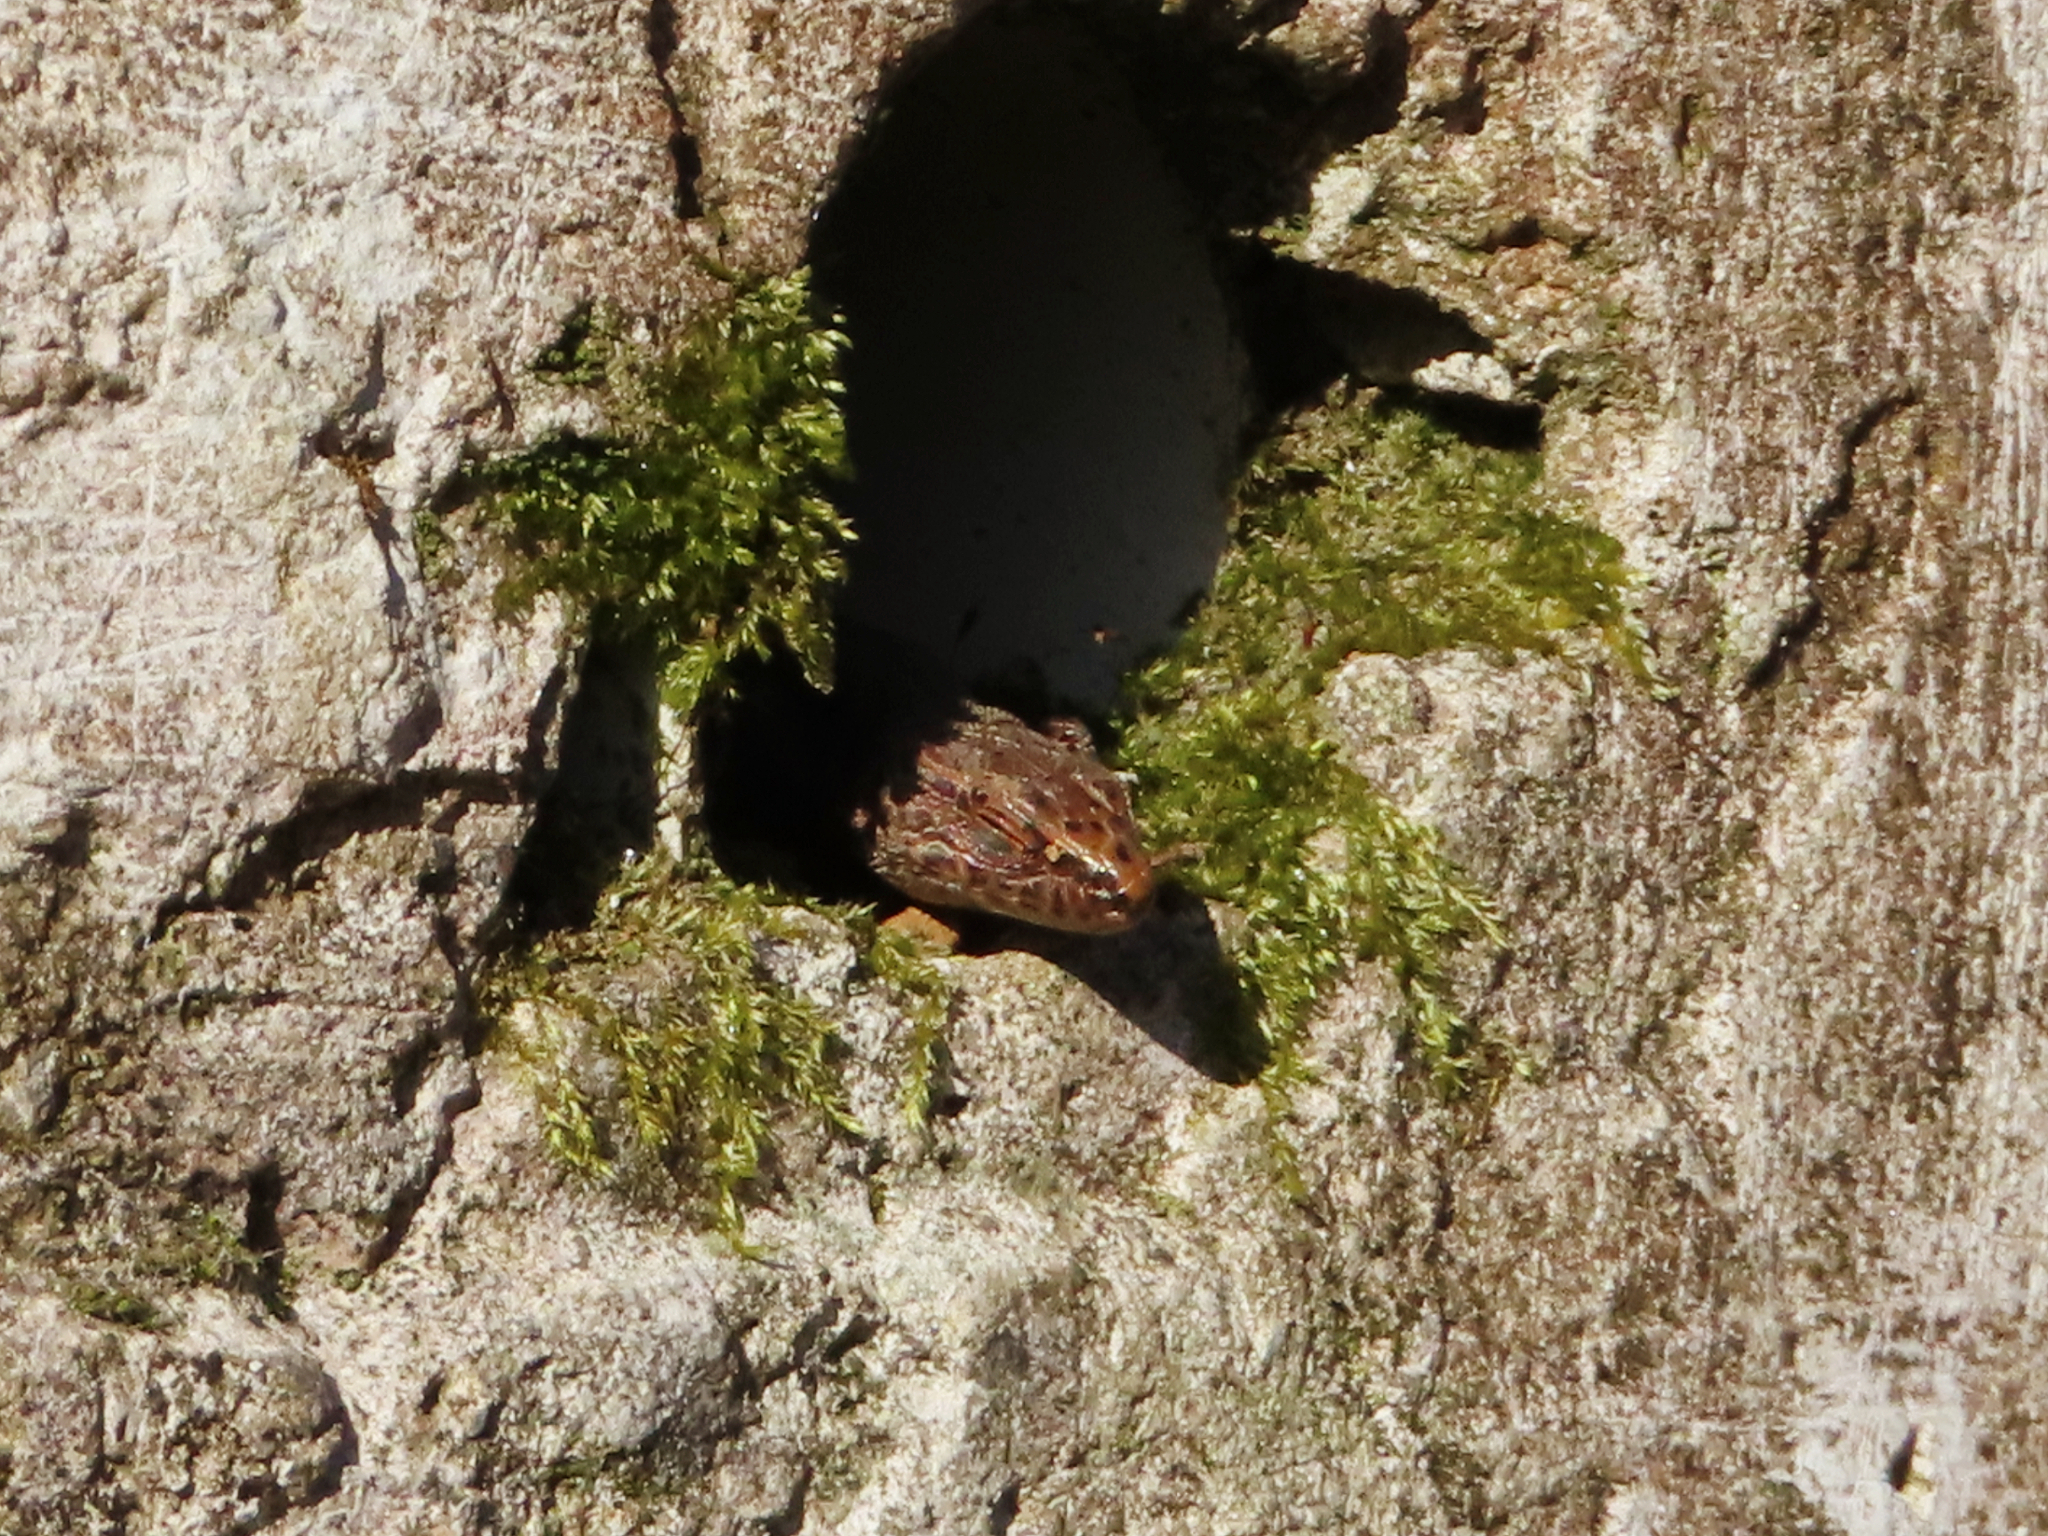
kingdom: Animalia
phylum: Chordata
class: Squamata
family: Lacertidae
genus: Darevskia
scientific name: Darevskia derjugini
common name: Derjugin's lizard
